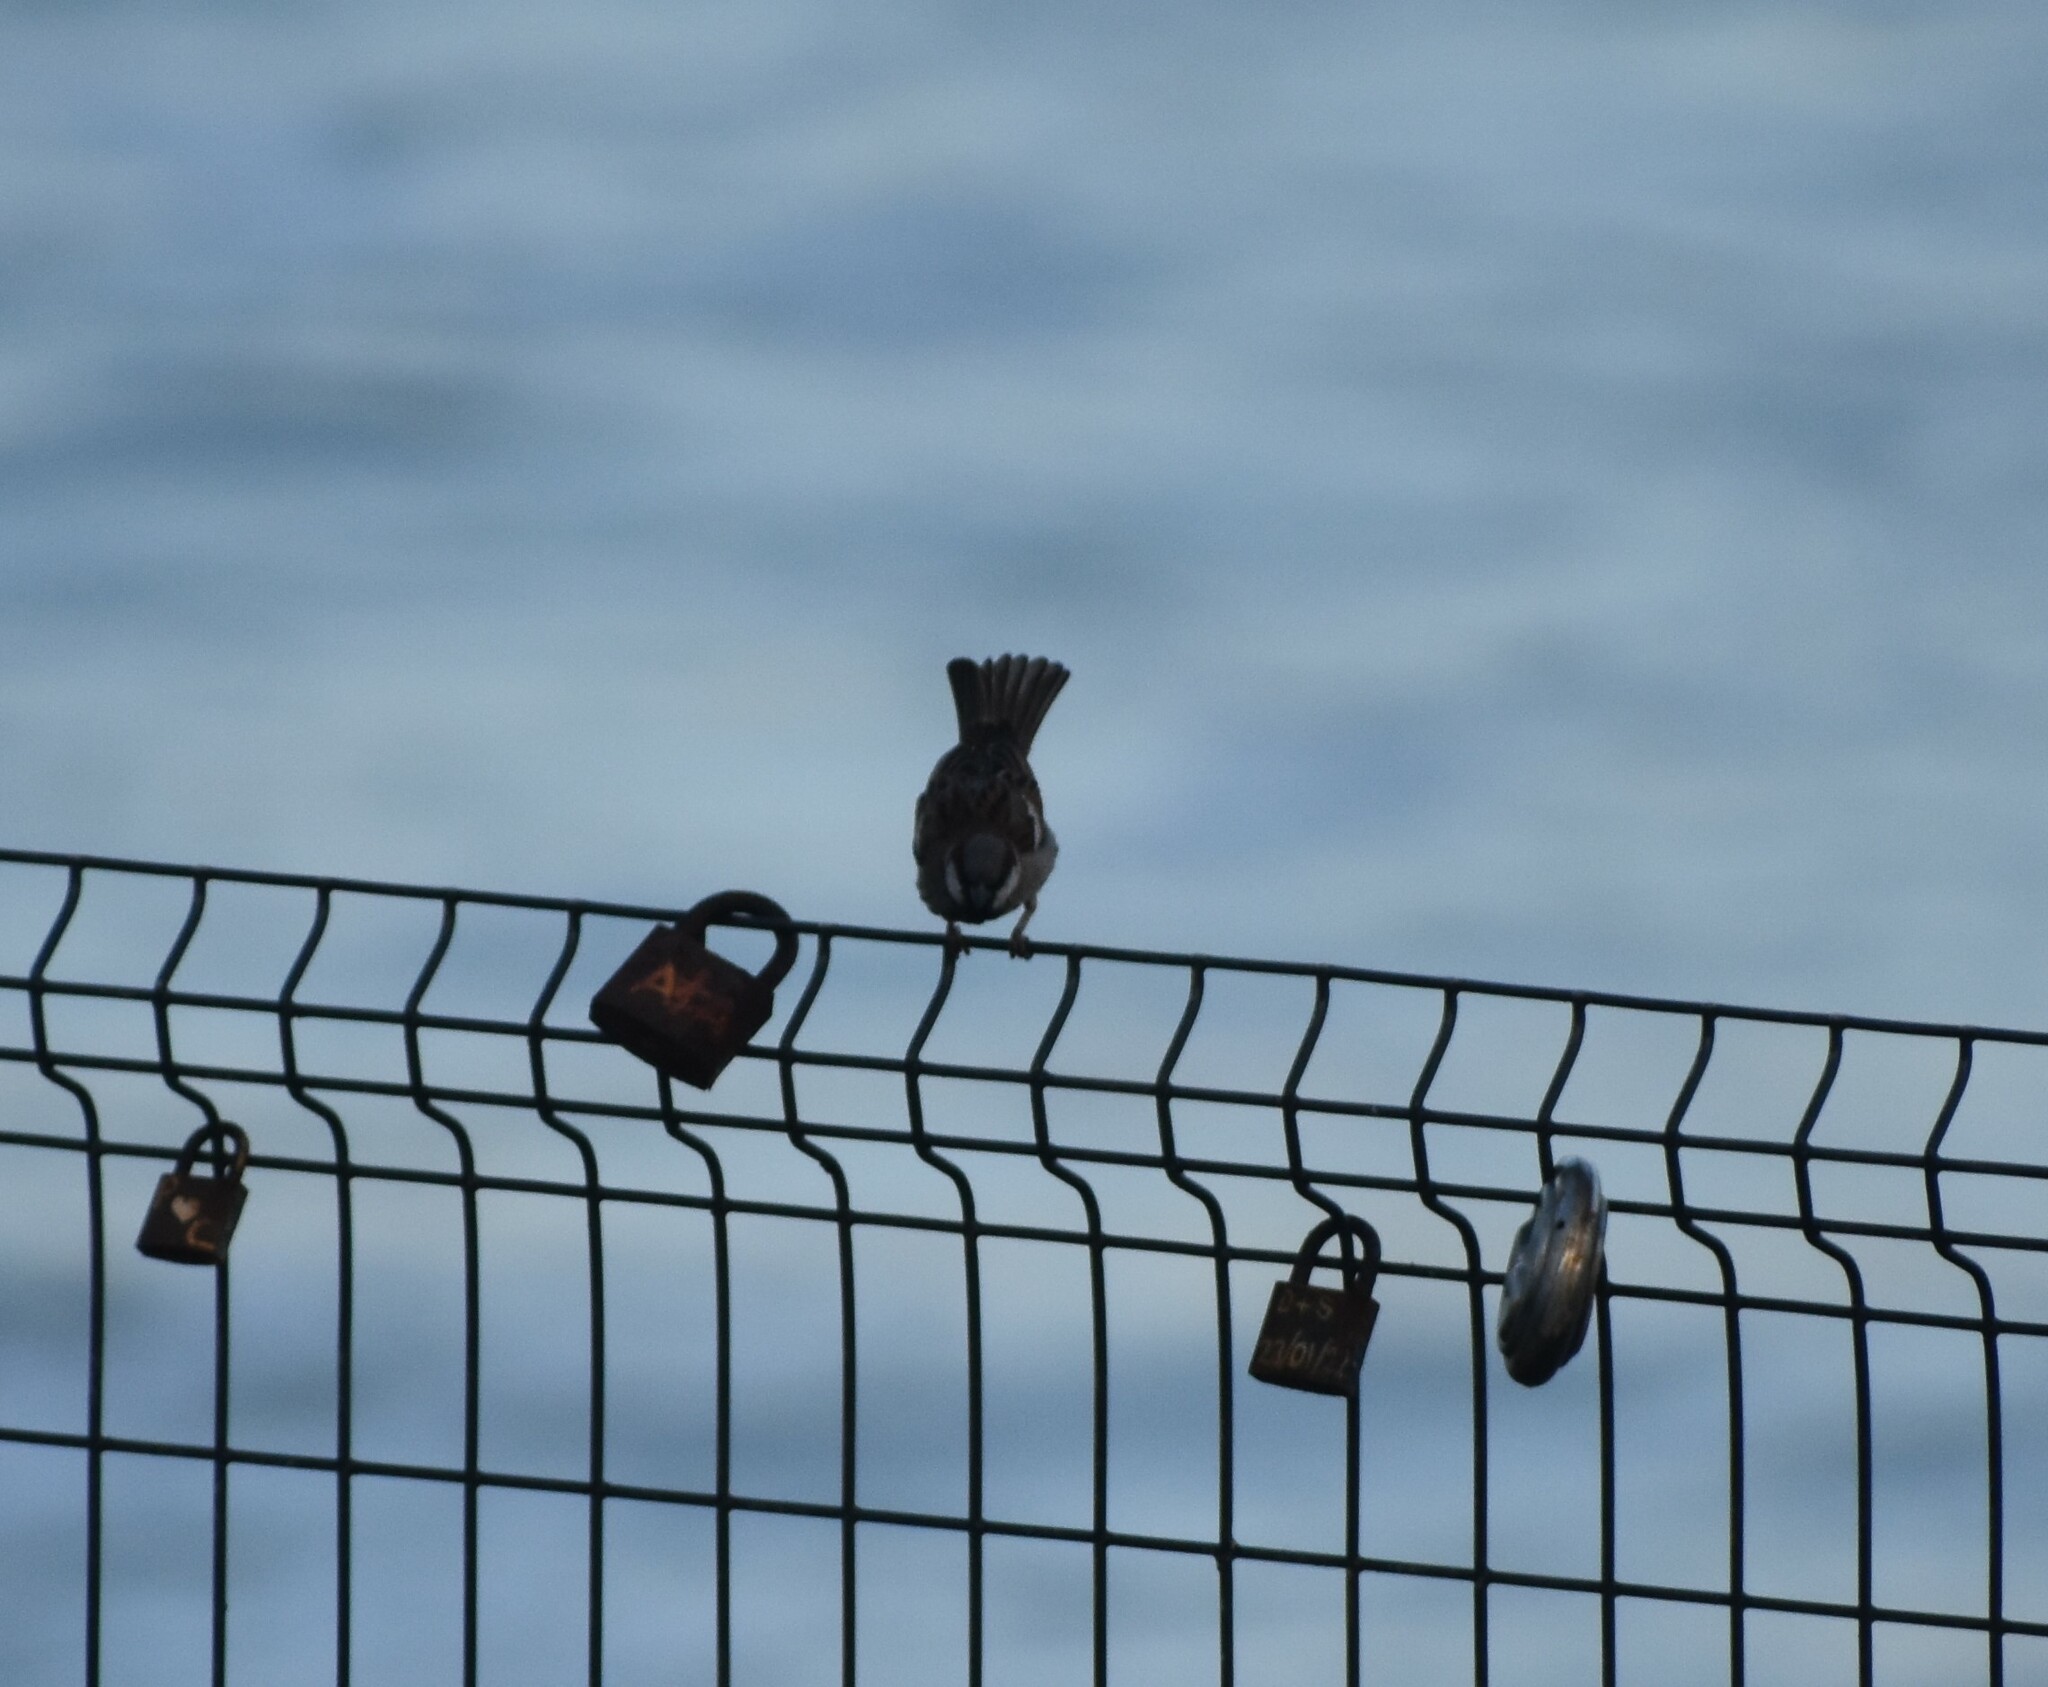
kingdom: Animalia
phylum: Chordata
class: Aves
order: Passeriformes
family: Passeridae
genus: Passer
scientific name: Passer domesticus
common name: House sparrow
